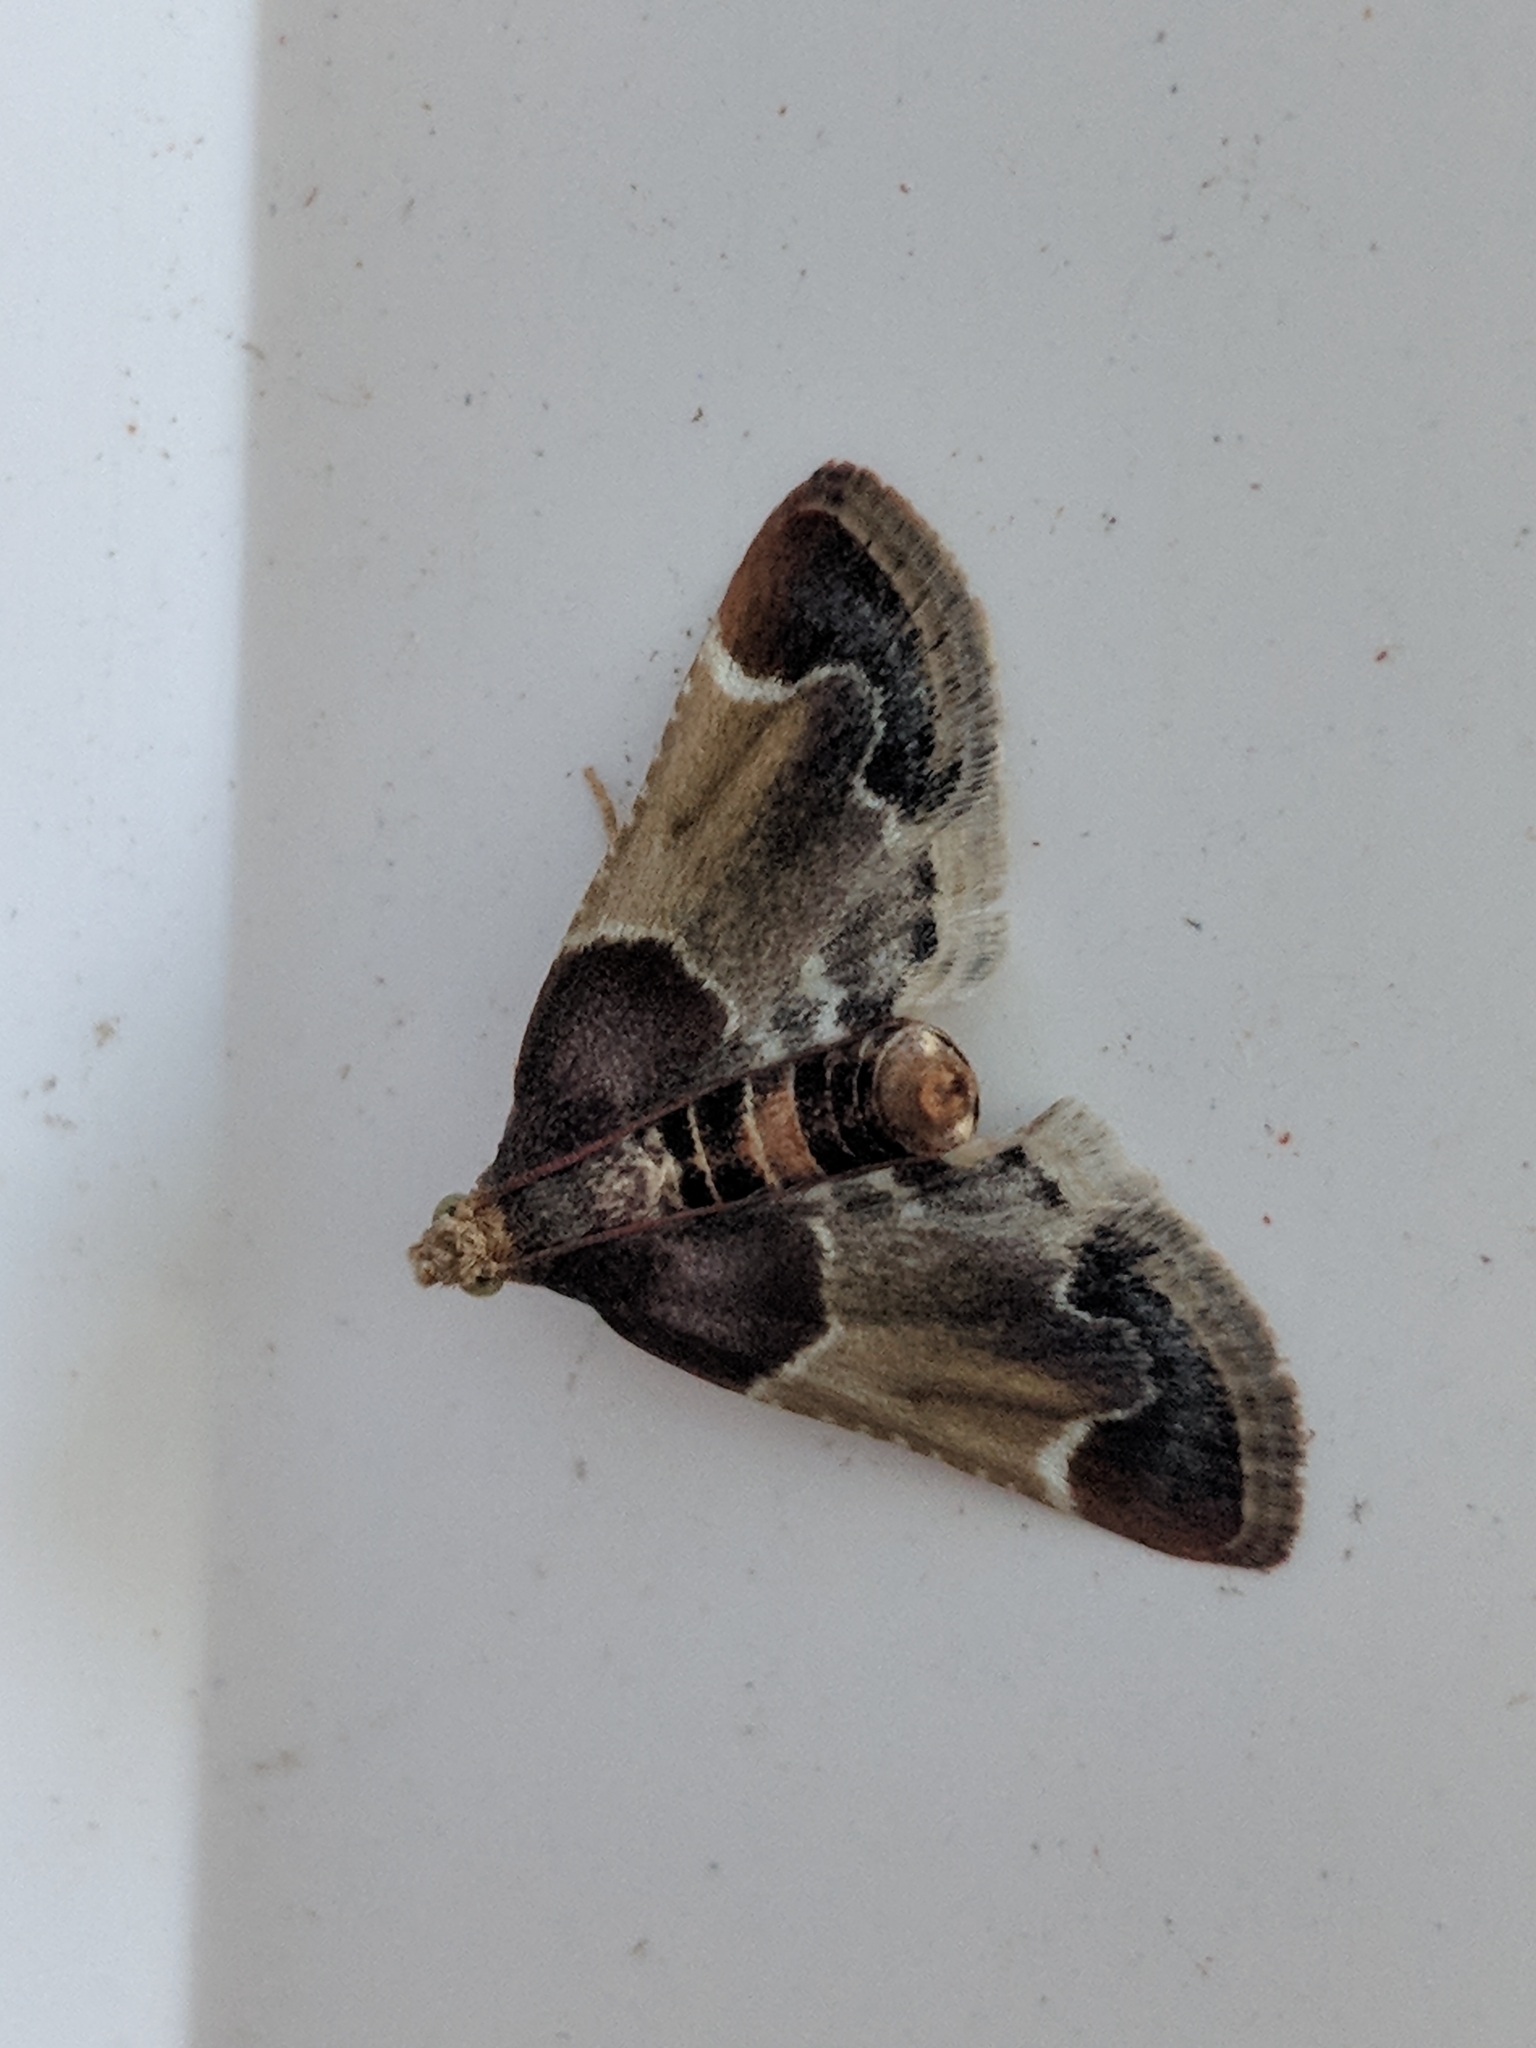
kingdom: Animalia
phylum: Arthropoda
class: Insecta
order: Lepidoptera
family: Pyralidae
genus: Pyralis
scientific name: Pyralis farinalis
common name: Meal moth
